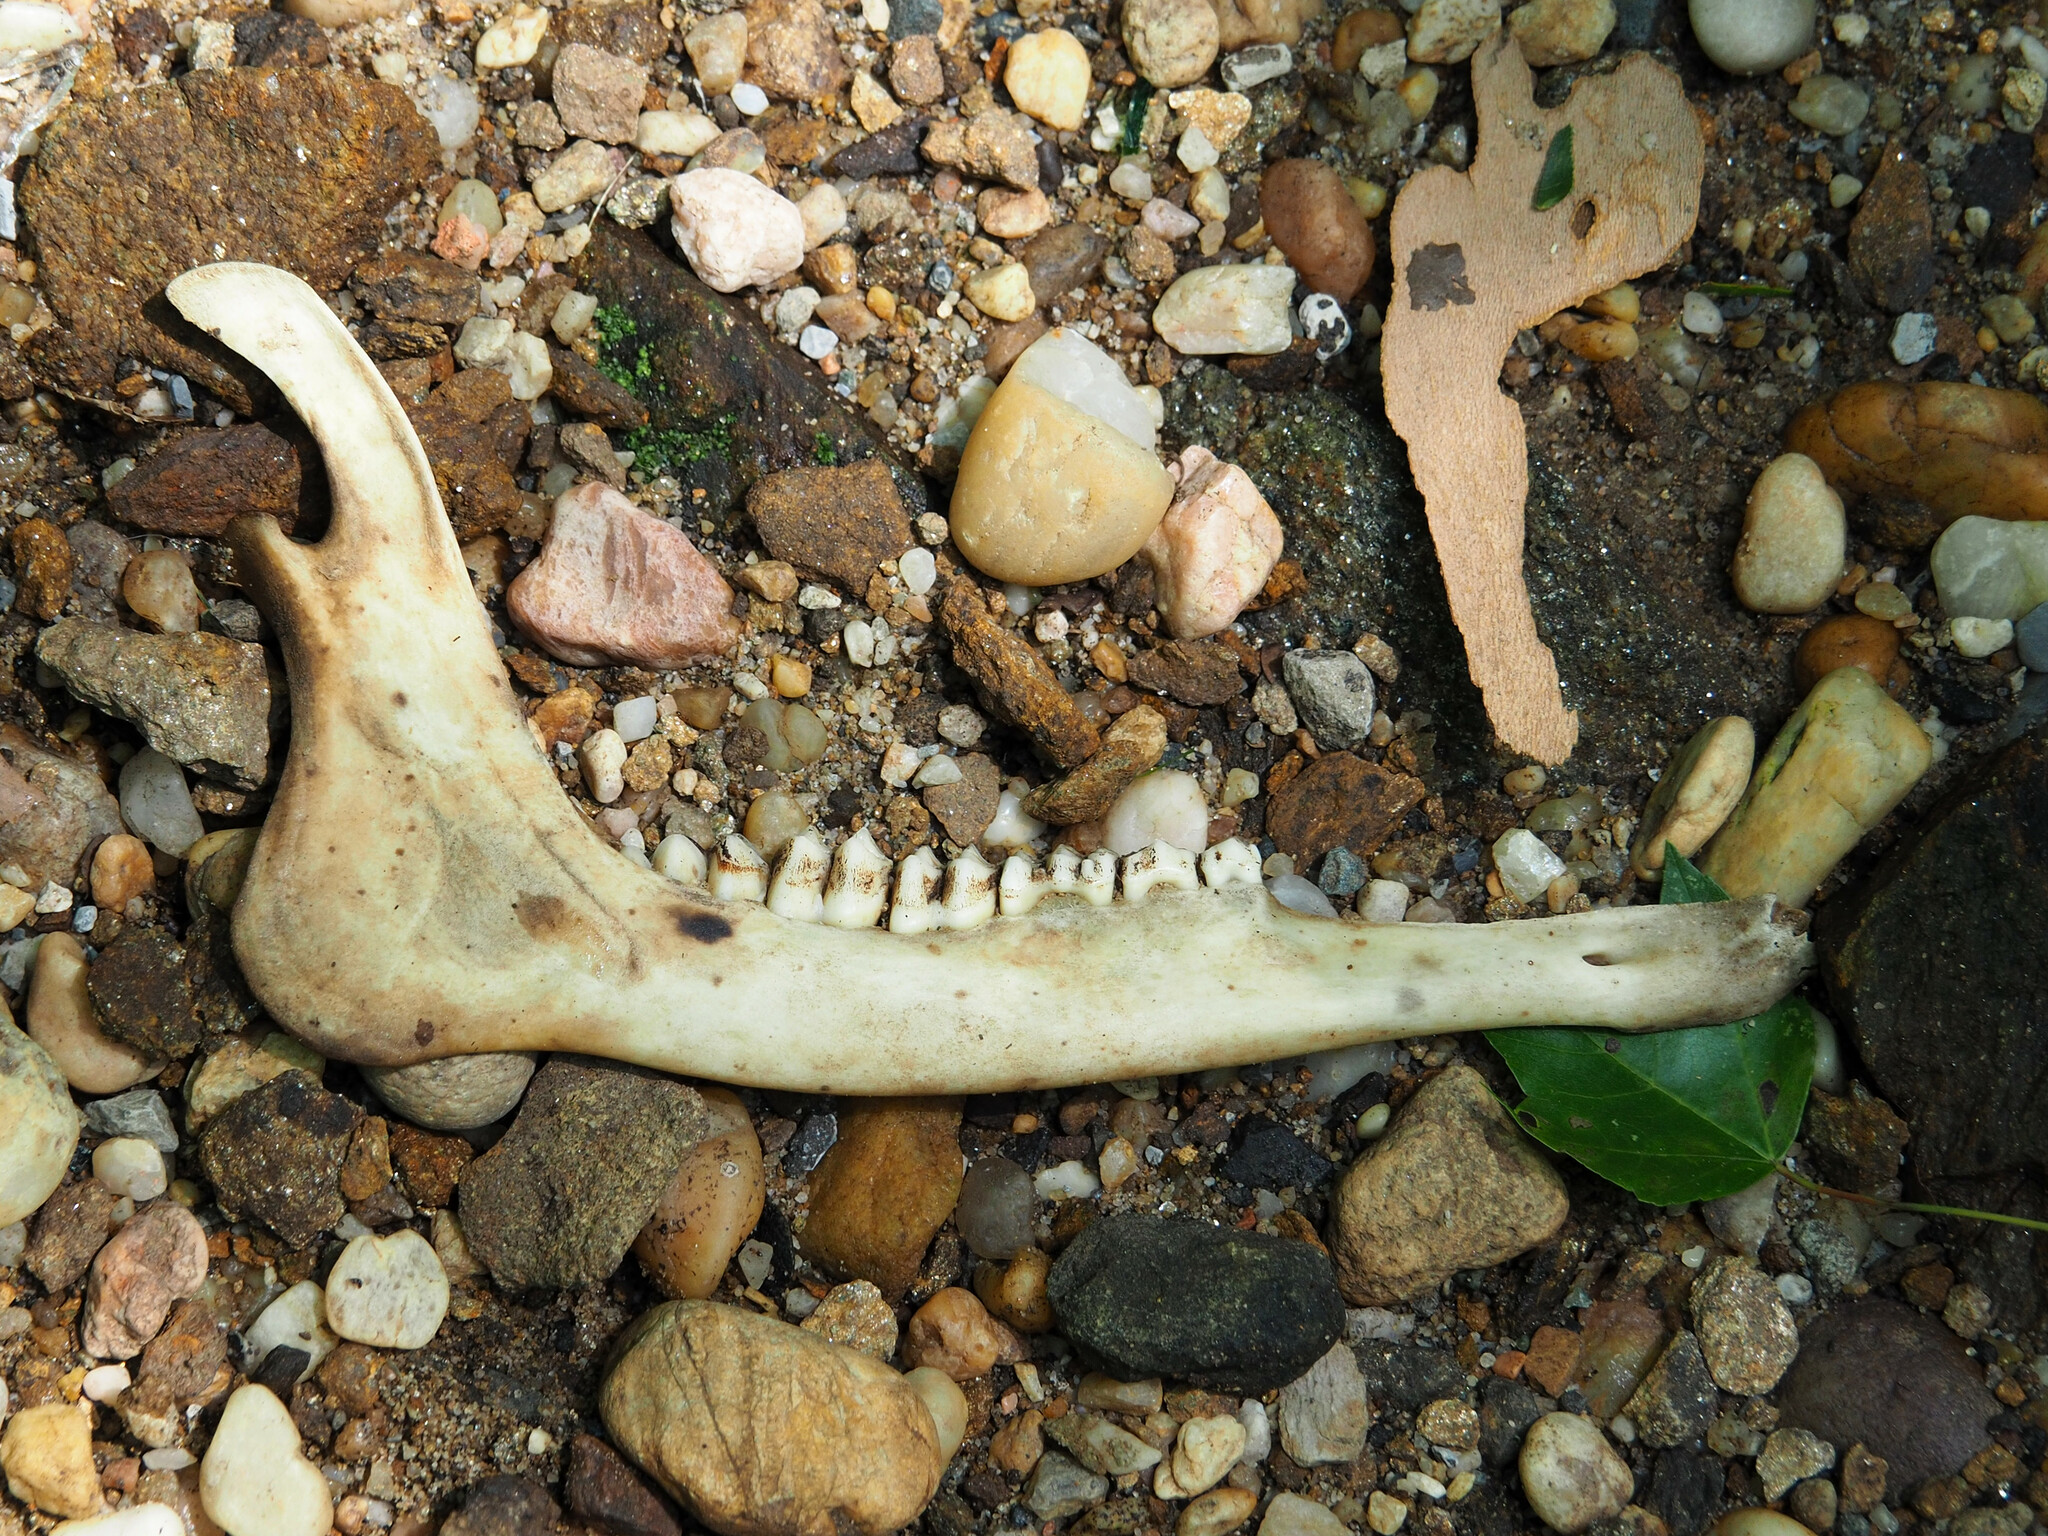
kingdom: Animalia
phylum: Chordata
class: Mammalia
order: Artiodactyla
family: Cervidae
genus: Odocoileus
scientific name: Odocoileus virginianus
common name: White-tailed deer
